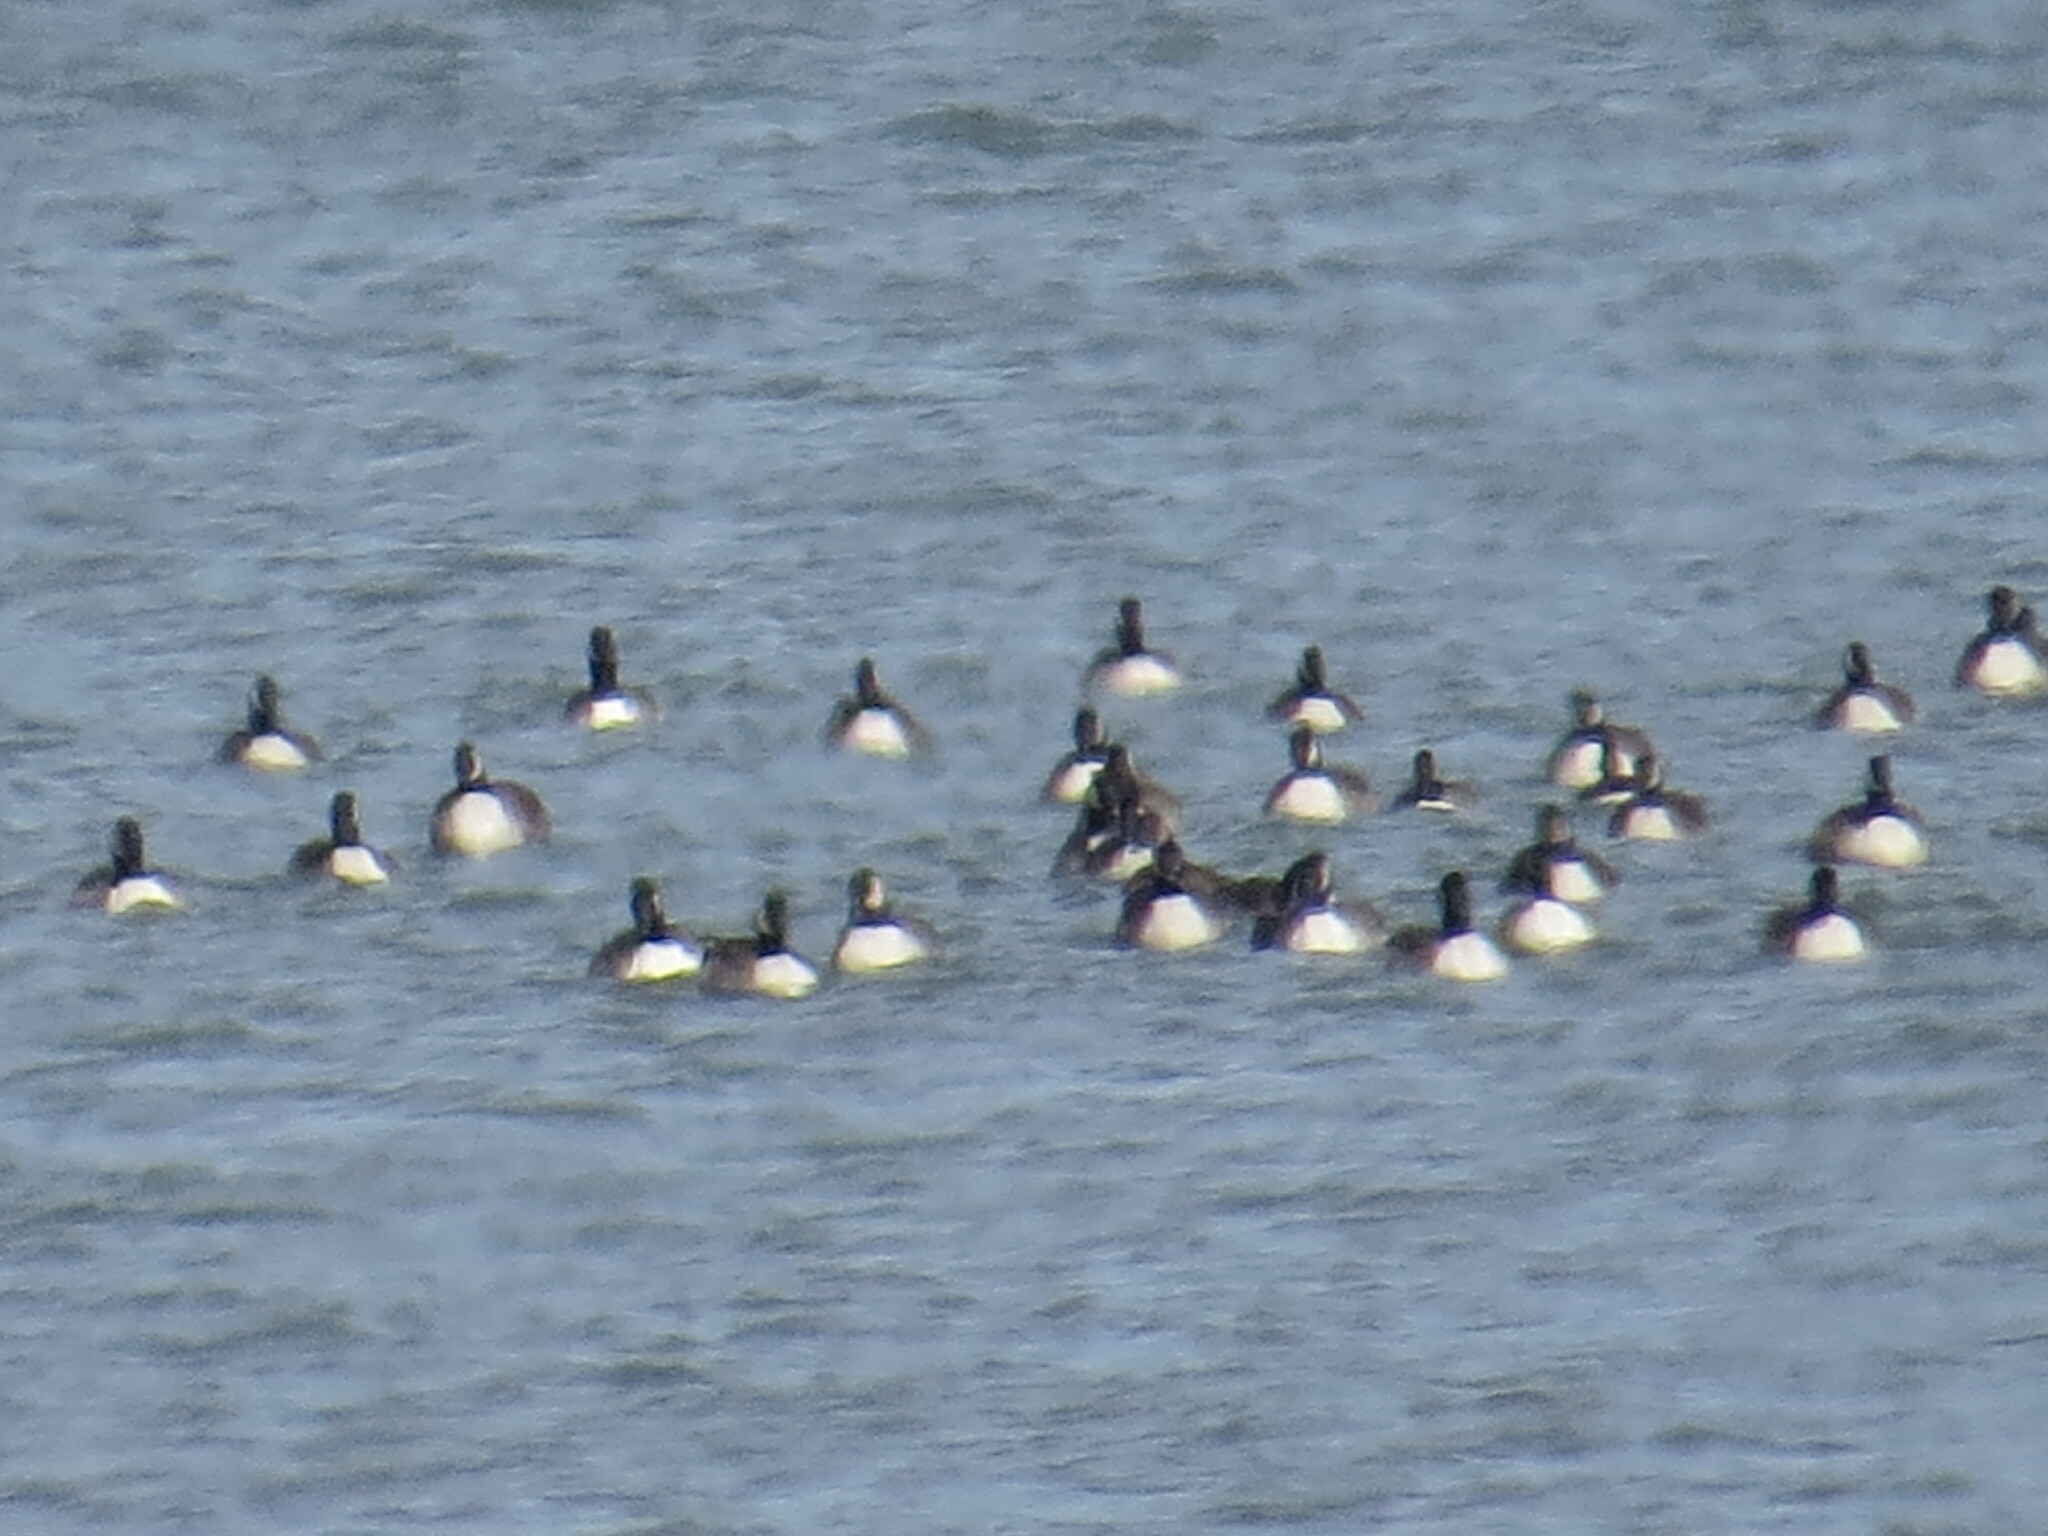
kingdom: Animalia
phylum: Chordata
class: Aves
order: Anseriformes
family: Anatidae
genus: Branta
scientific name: Branta canadensis
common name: Canada goose
